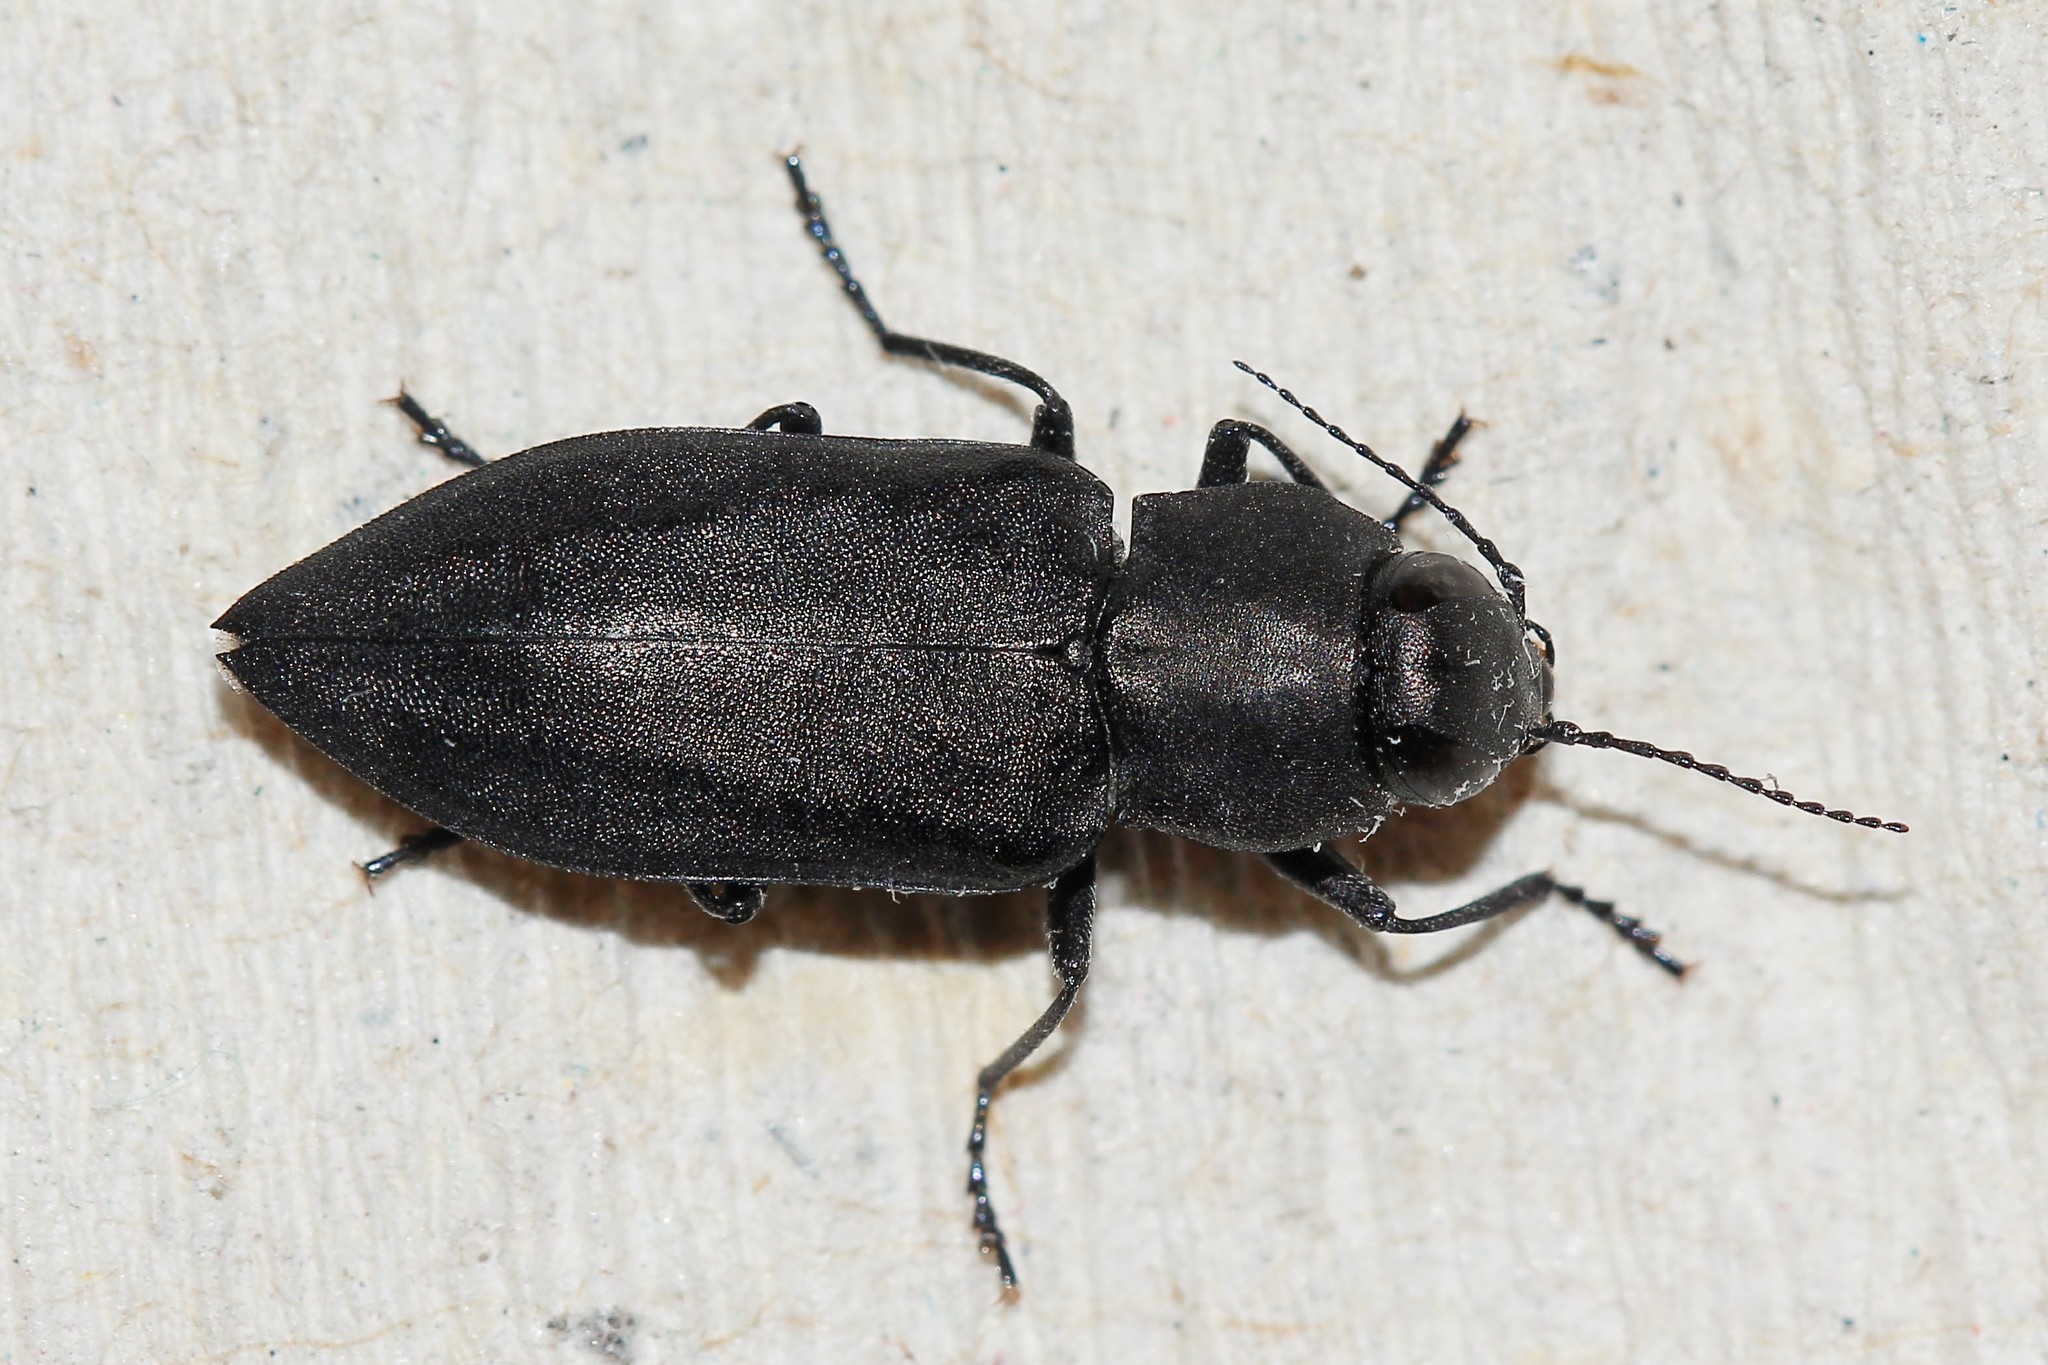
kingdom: Animalia
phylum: Arthropoda
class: Insecta
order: Coleoptera
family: Buprestidae
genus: Melanophila
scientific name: Melanophila acuminata
